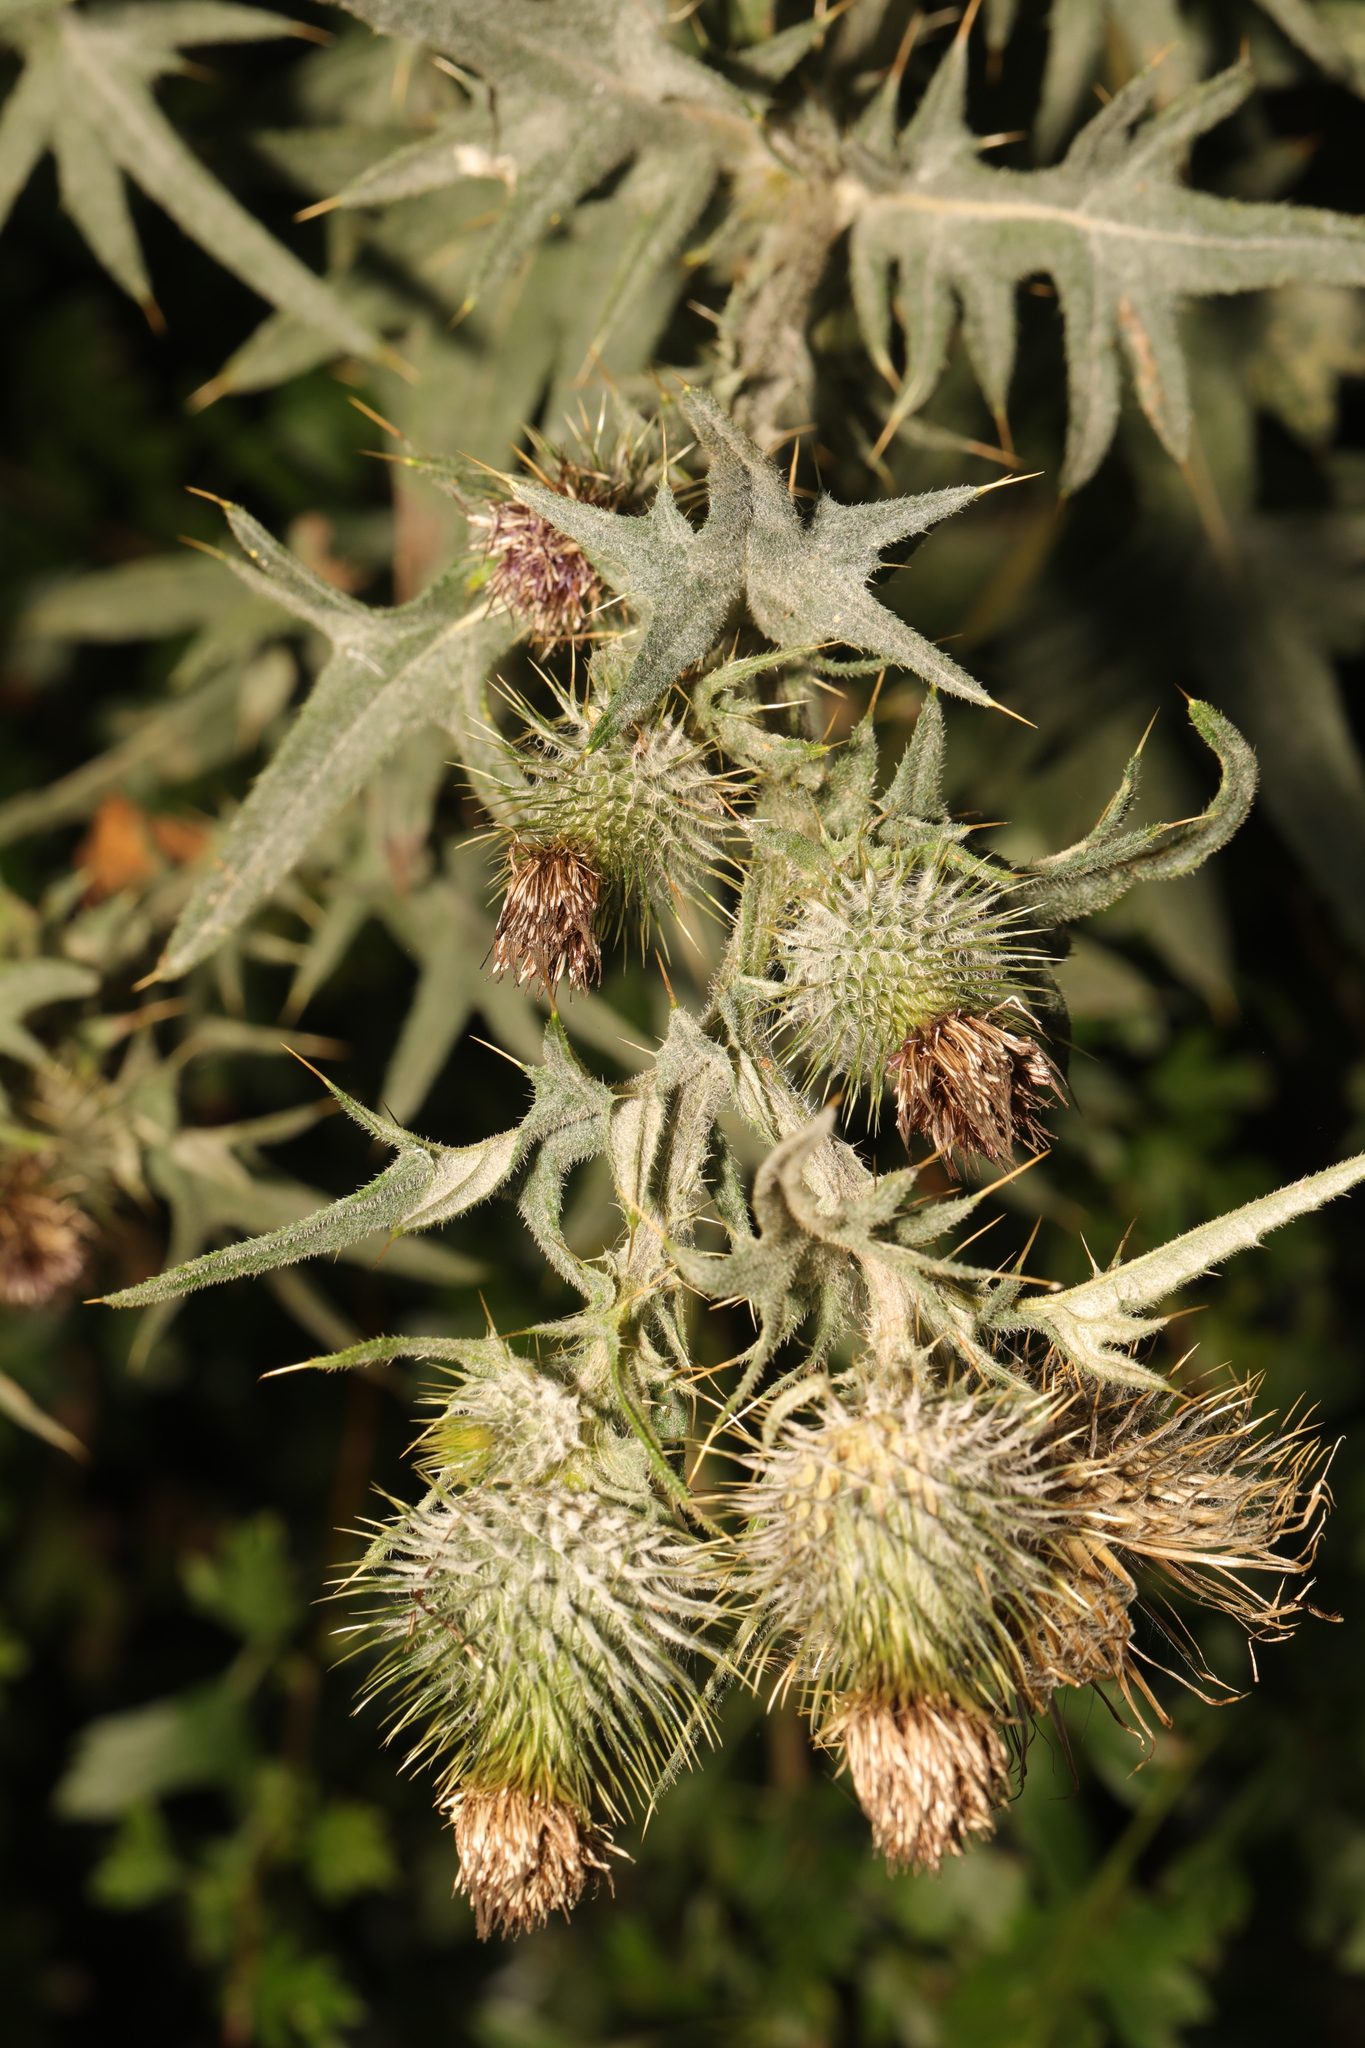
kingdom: Plantae
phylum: Tracheophyta
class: Magnoliopsida
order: Asterales
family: Asteraceae
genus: Cirsium
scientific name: Cirsium vulgare
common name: Bull thistle
